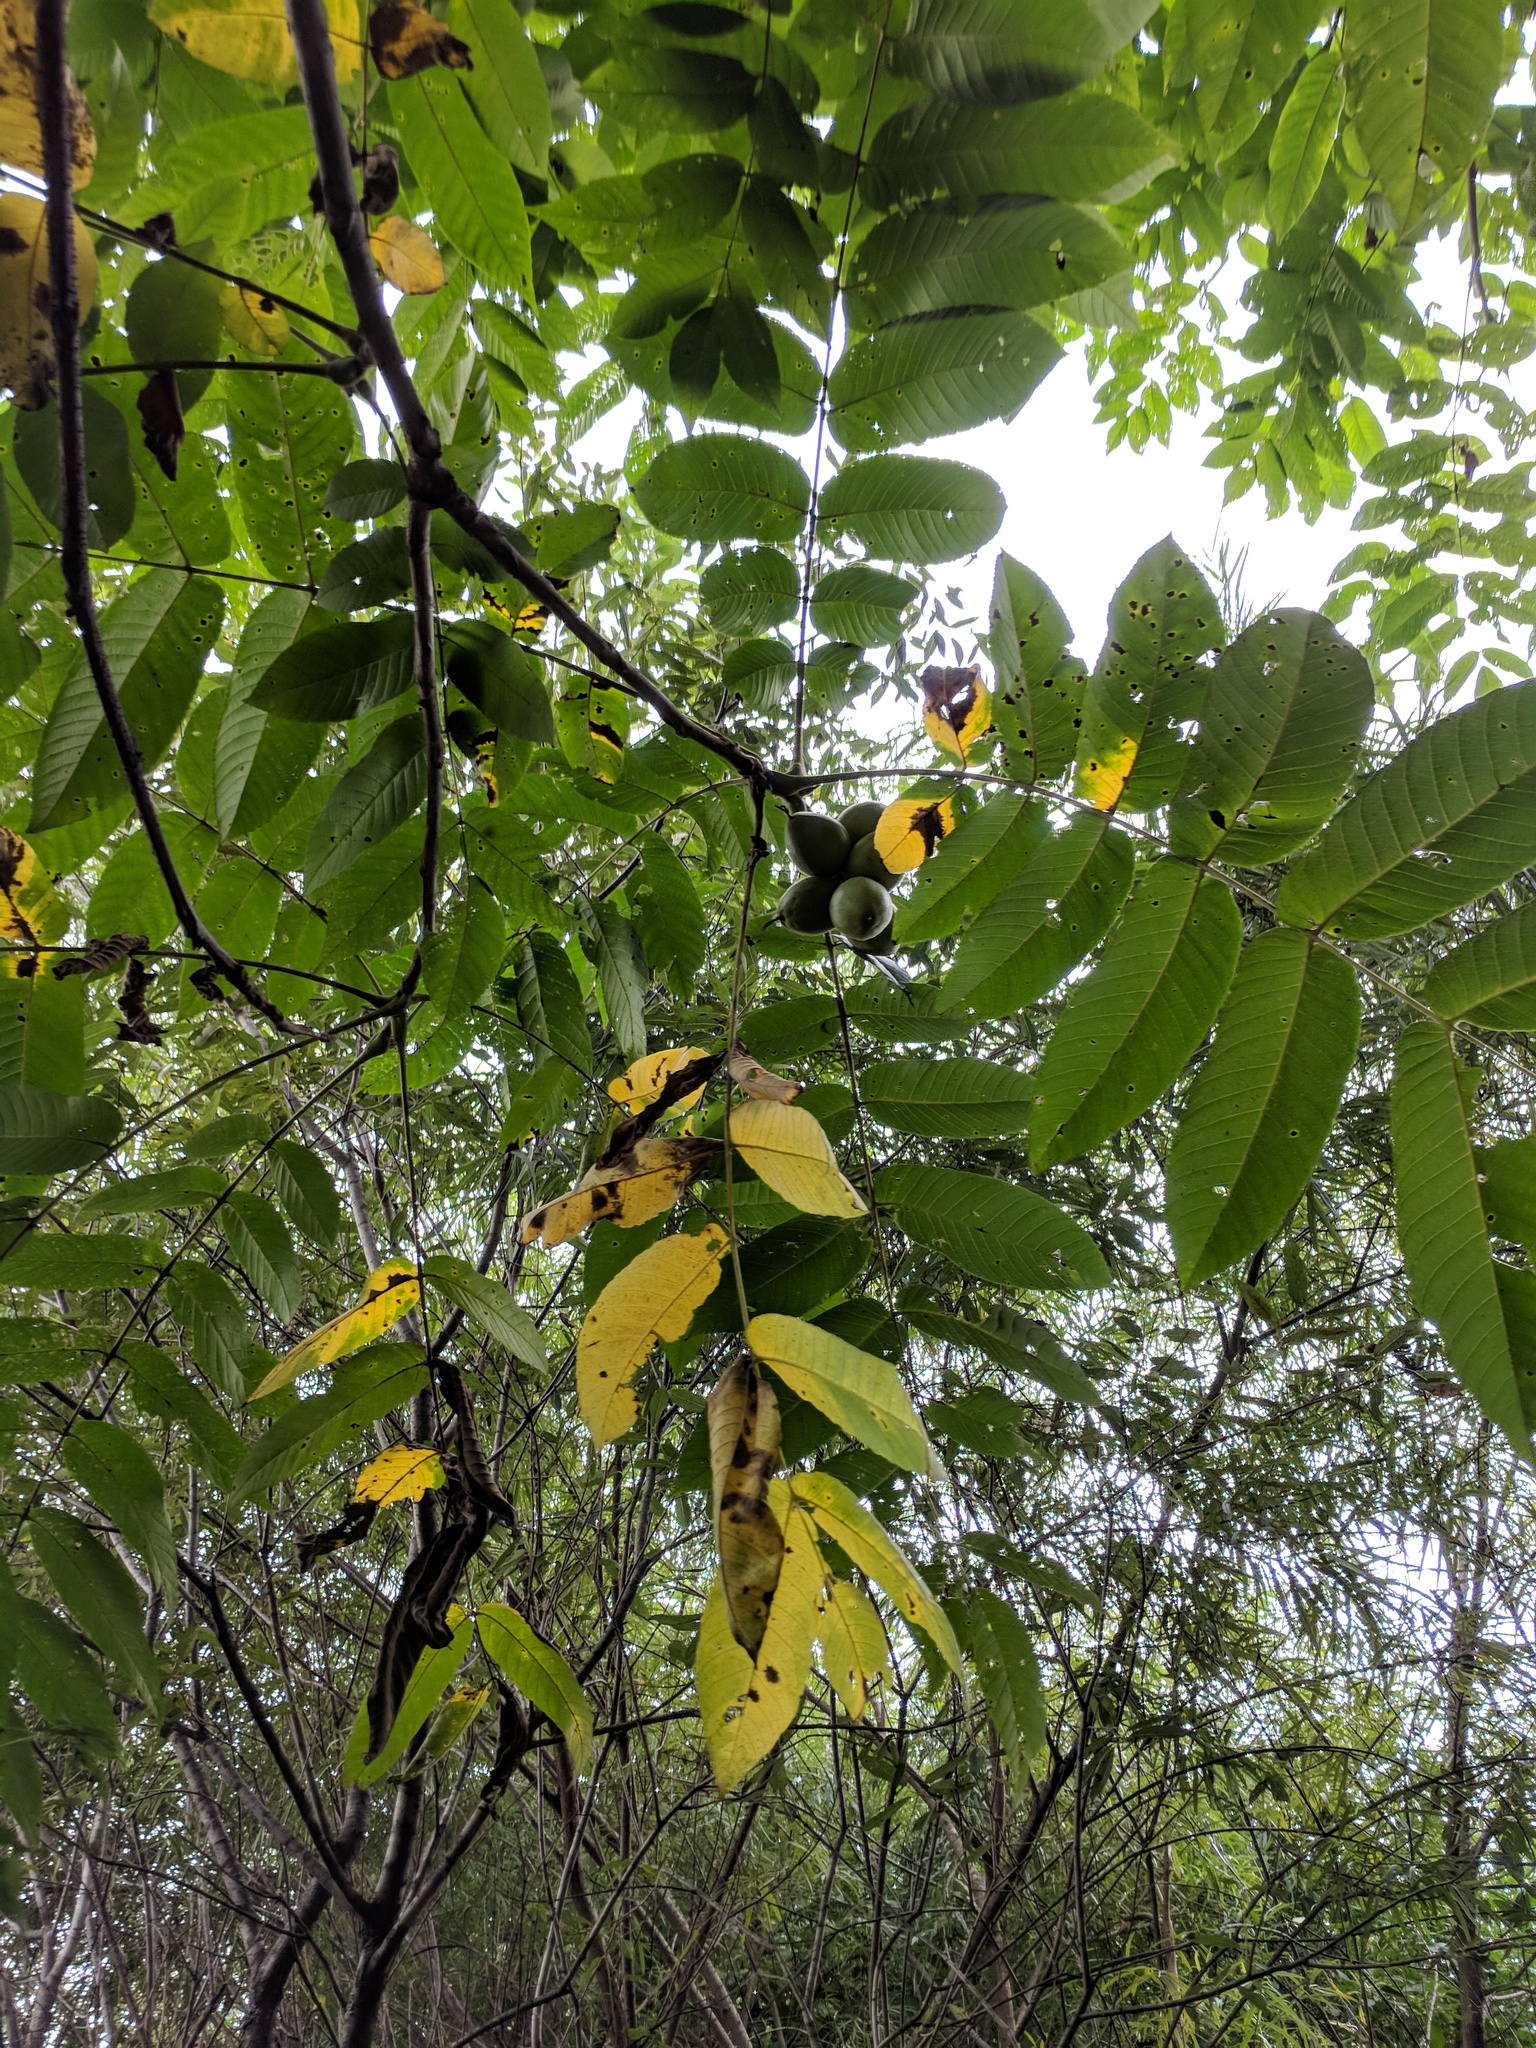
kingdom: Plantae
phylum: Tracheophyta
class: Magnoliopsida
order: Fagales
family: Juglandaceae
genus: Juglans
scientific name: Juglans mandshurica
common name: Manchurian walnut
